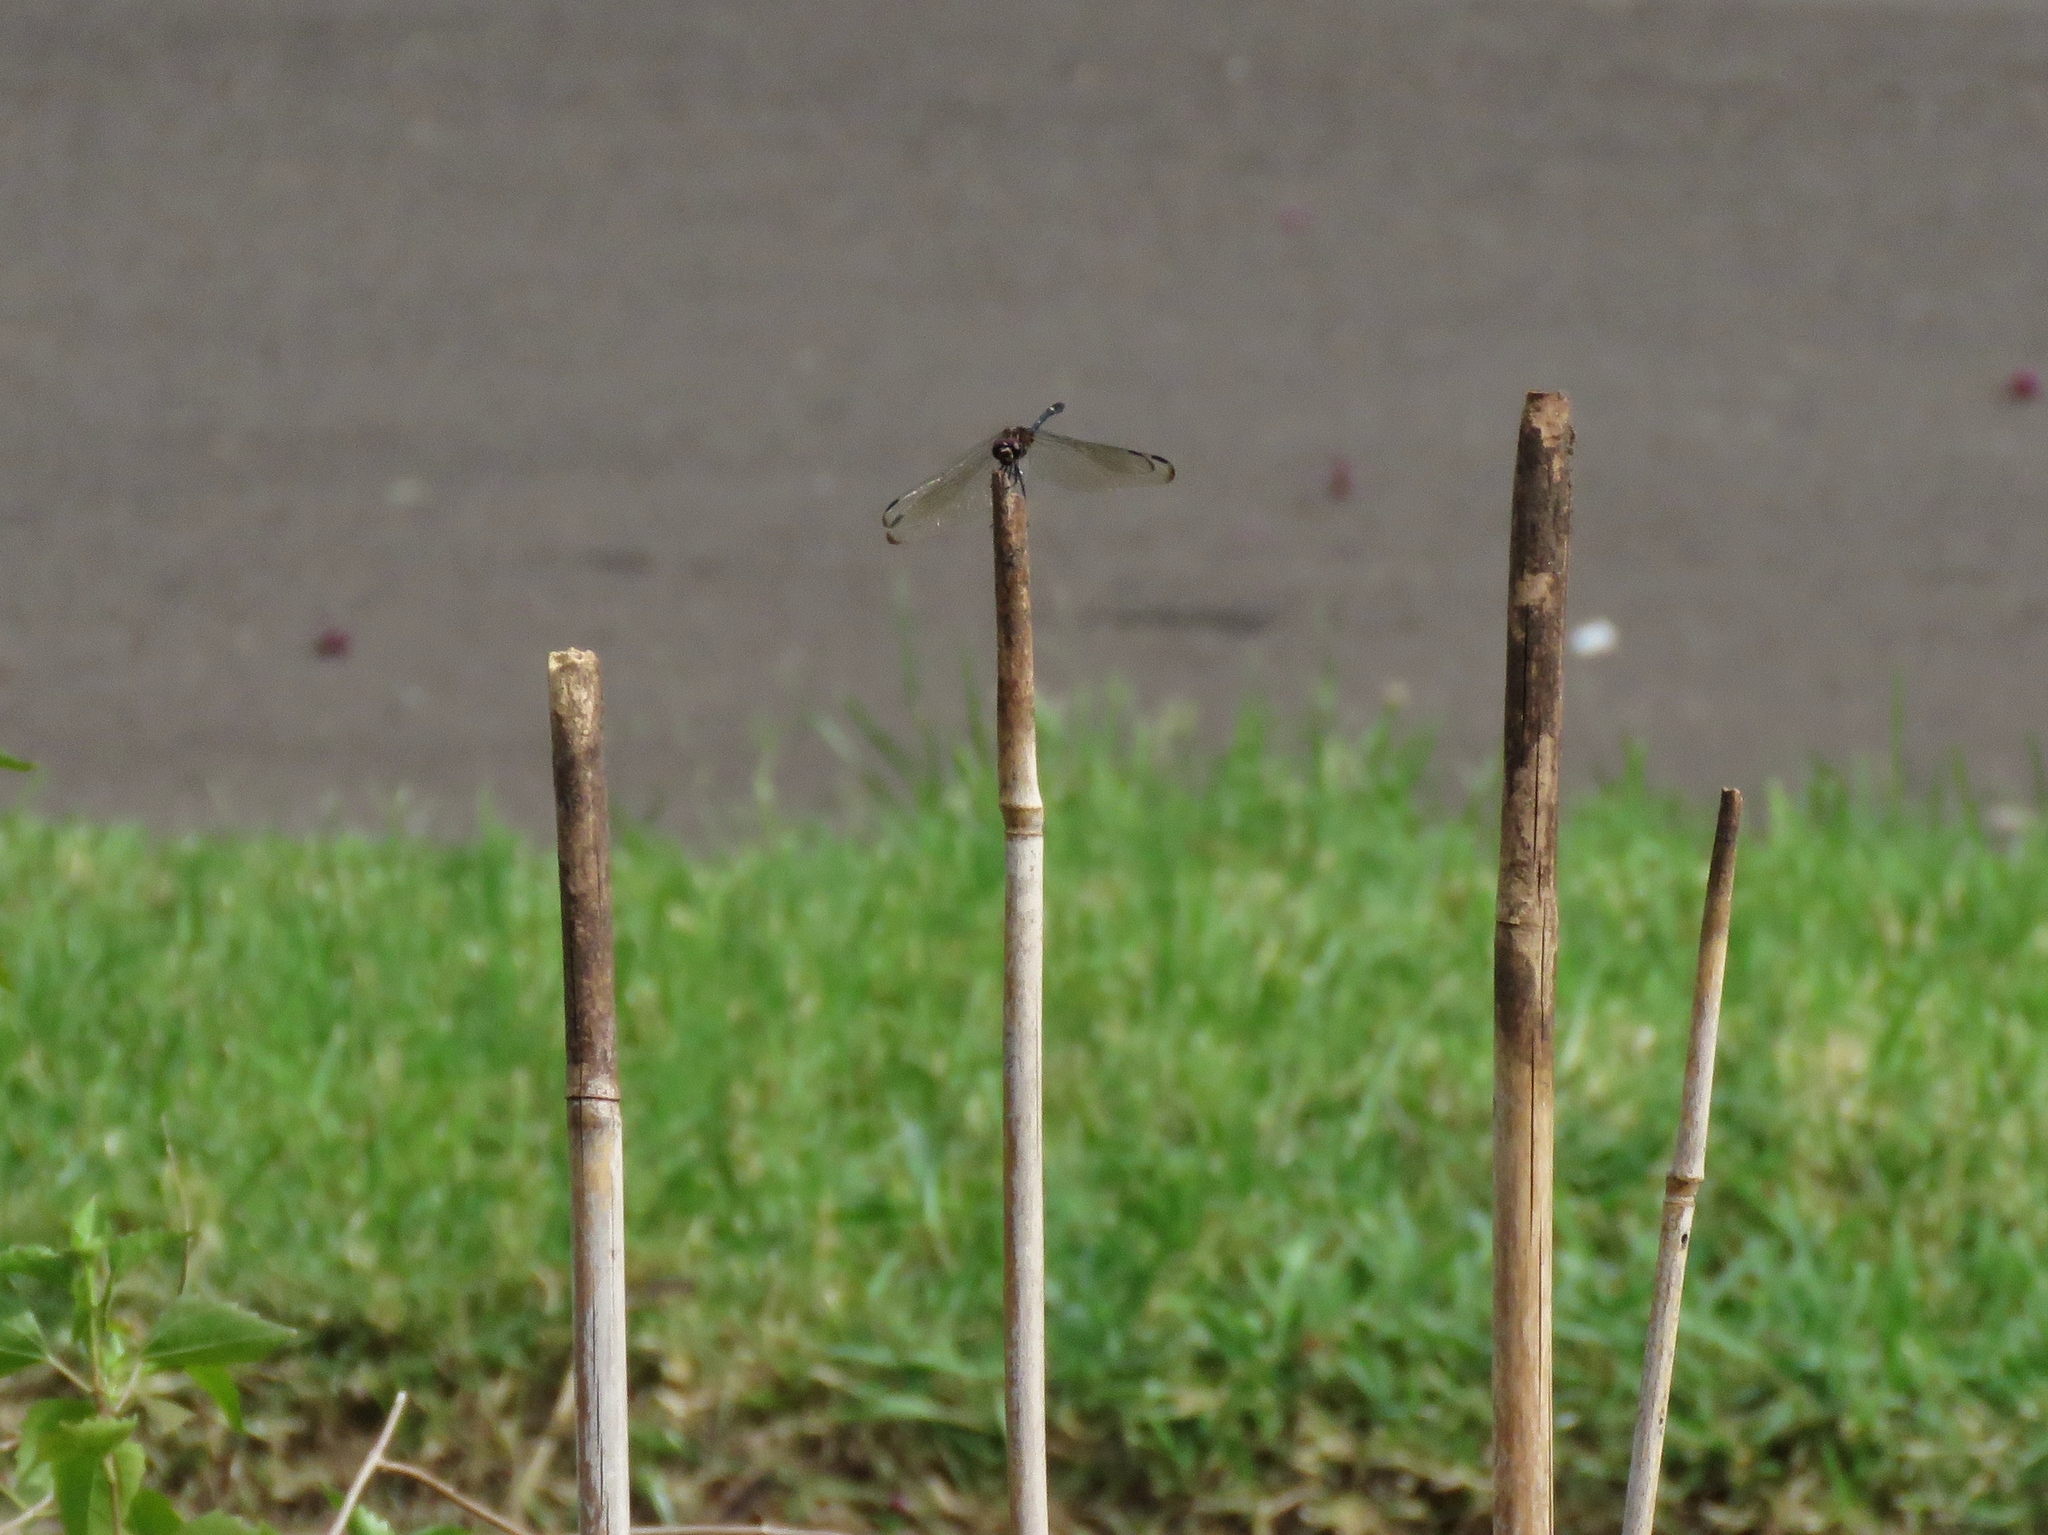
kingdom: Animalia
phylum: Arthropoda
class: Insecta
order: Odonata
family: Libellulidae
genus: Dythemis
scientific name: Dythemis velox
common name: Swift setwing
